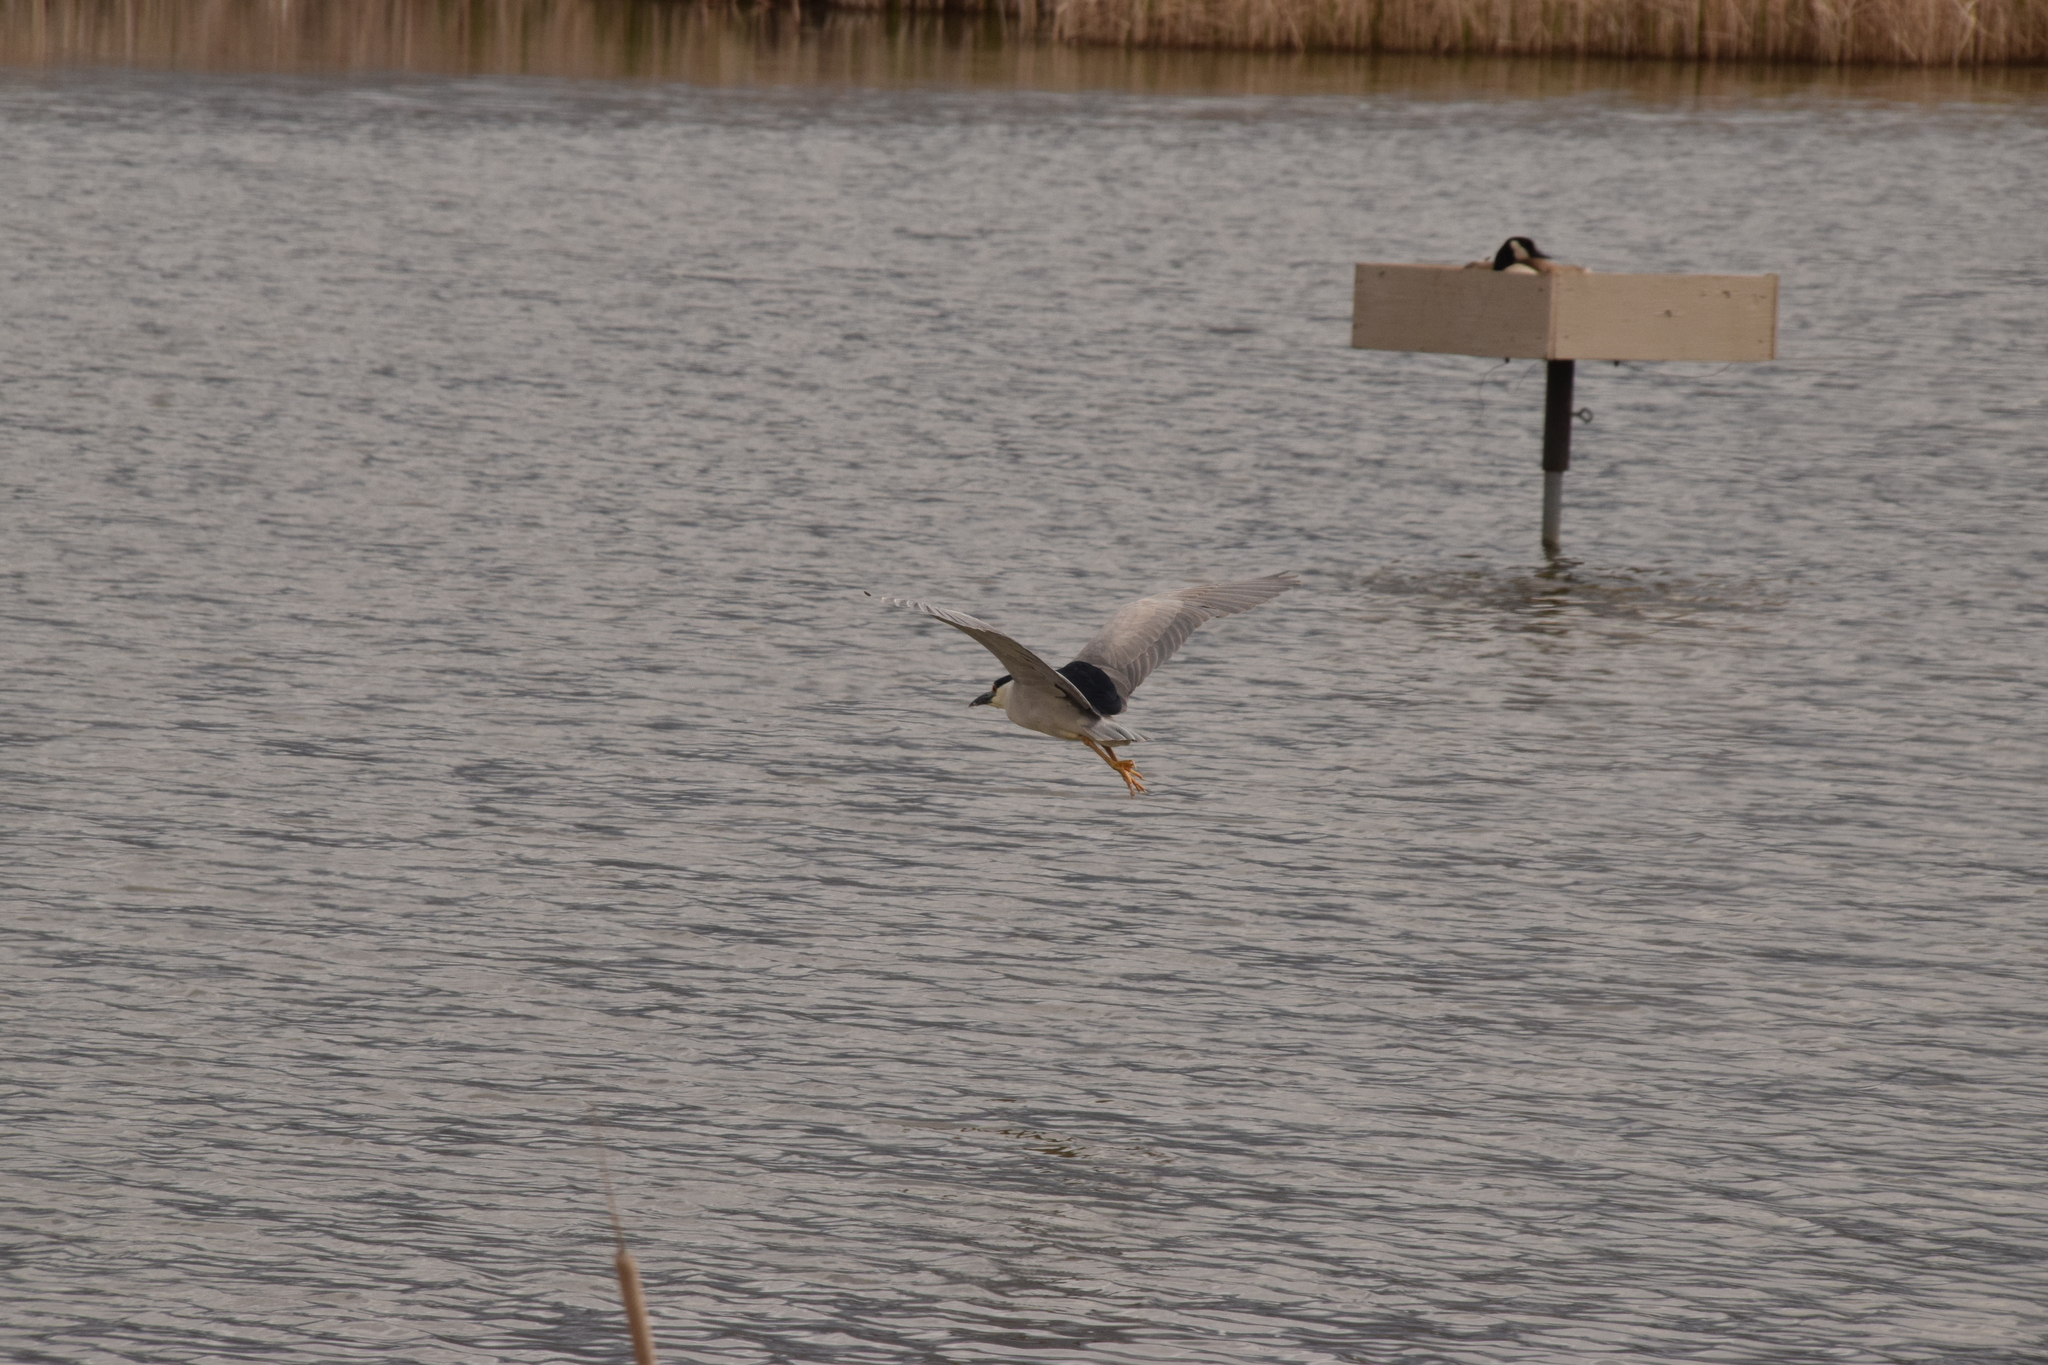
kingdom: Animalia
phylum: Chordata
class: Aves
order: Pelecaniformes
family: Ardeidae
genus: Nycticorax
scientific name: Nycticorax nycticorax
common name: Black-crowned night heron
